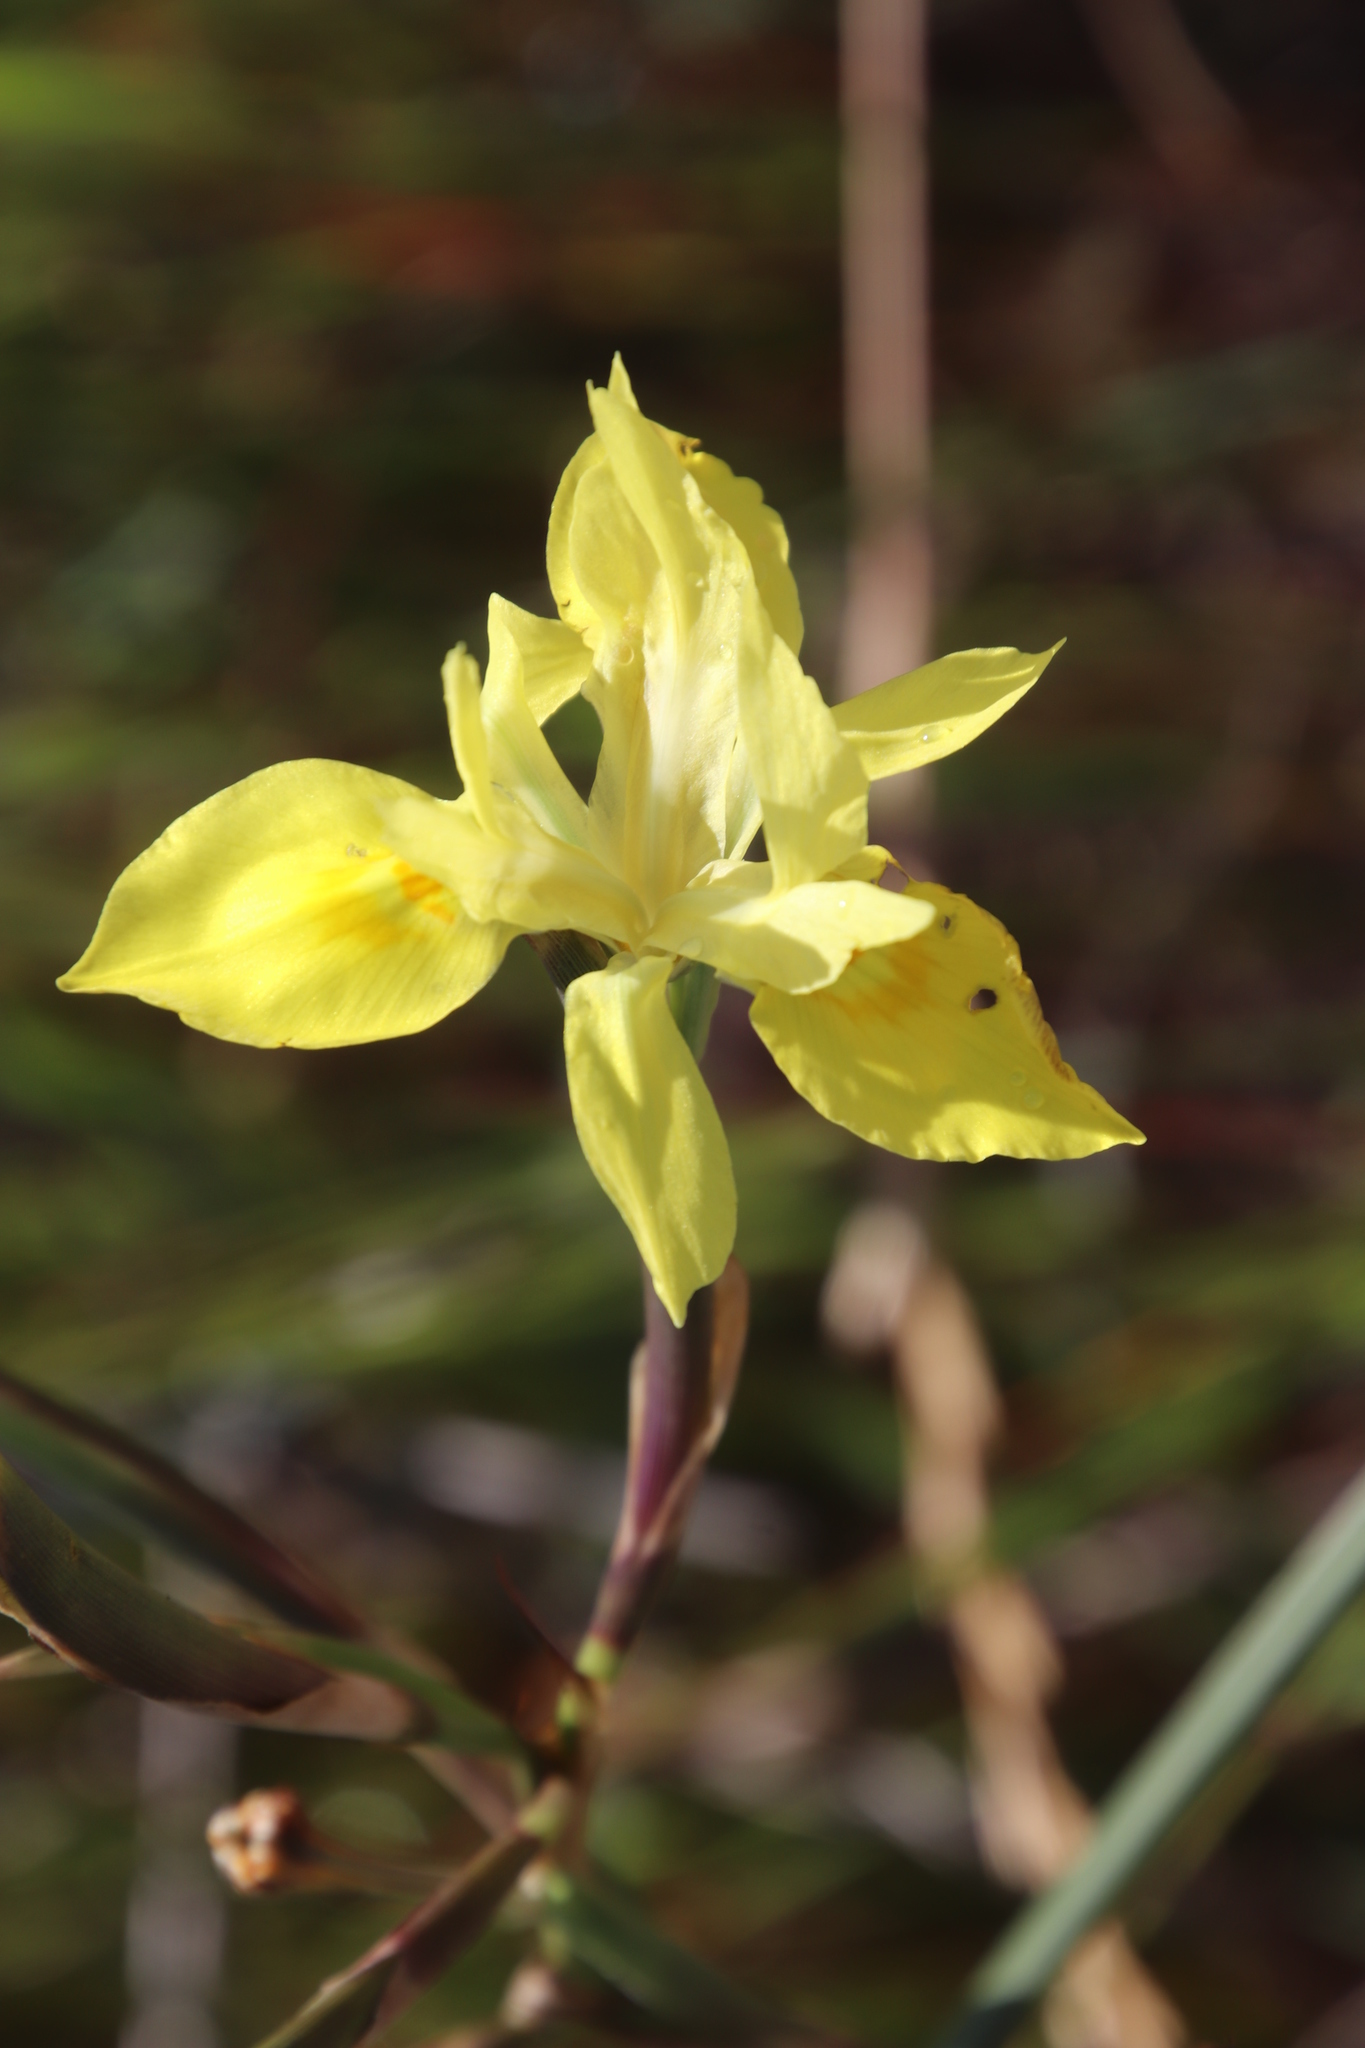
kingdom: Plantae
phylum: Tracheophyta
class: Liliopsida
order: Asparagales
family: Iridaceae
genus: Moraea
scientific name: Moraea neglecta
